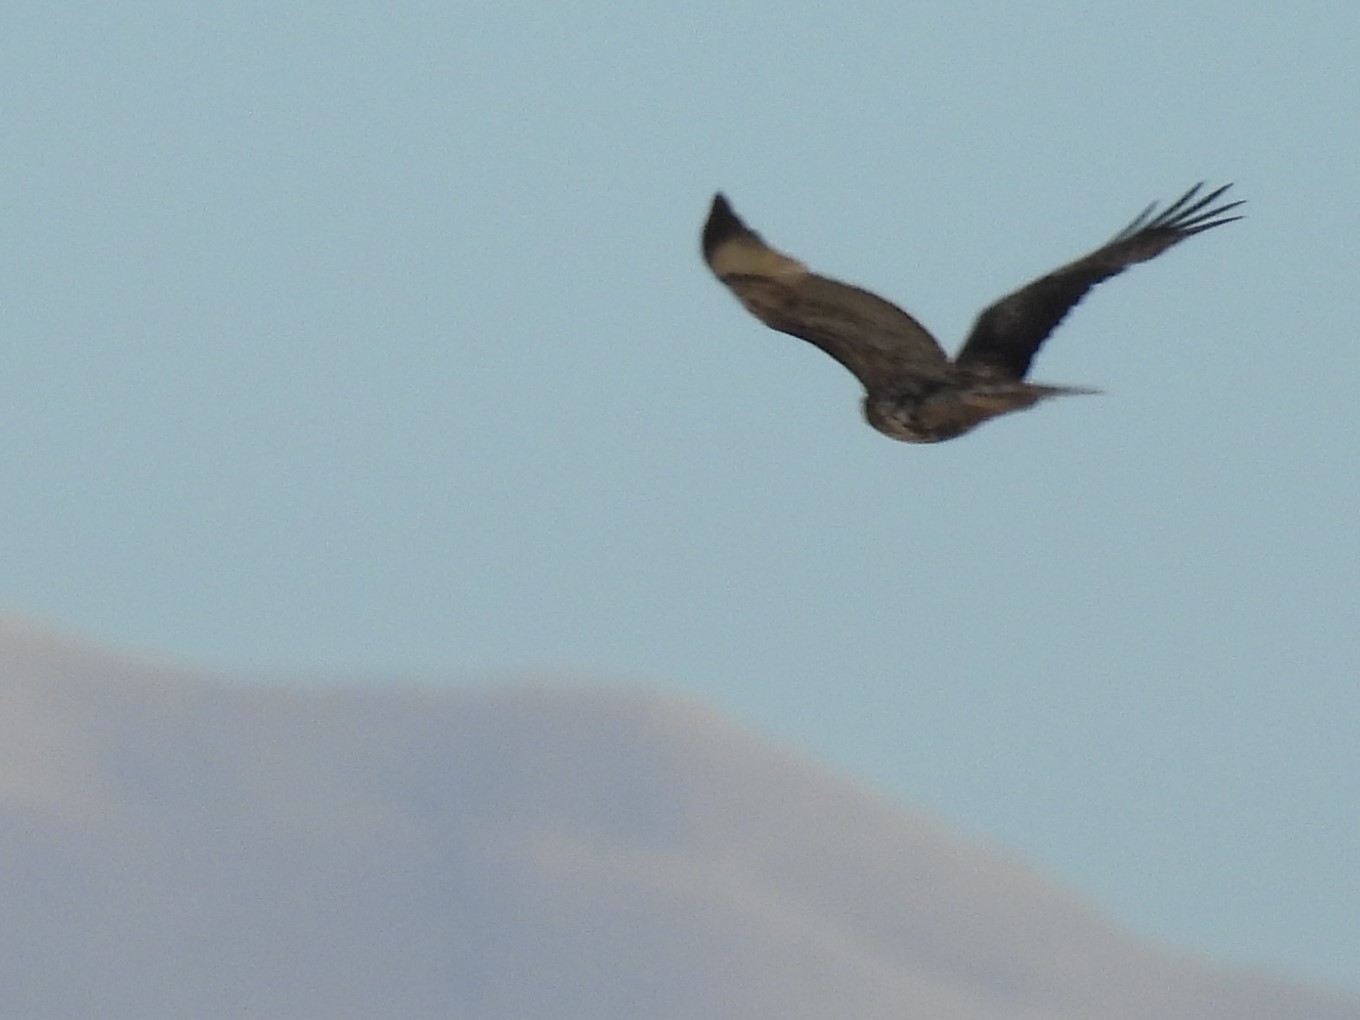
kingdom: Animalia
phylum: Chordata
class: Aves
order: Accipitriformes
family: Accipitridae
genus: Buteo
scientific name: Buteo jamaicensis
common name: Red-tailed hawk
